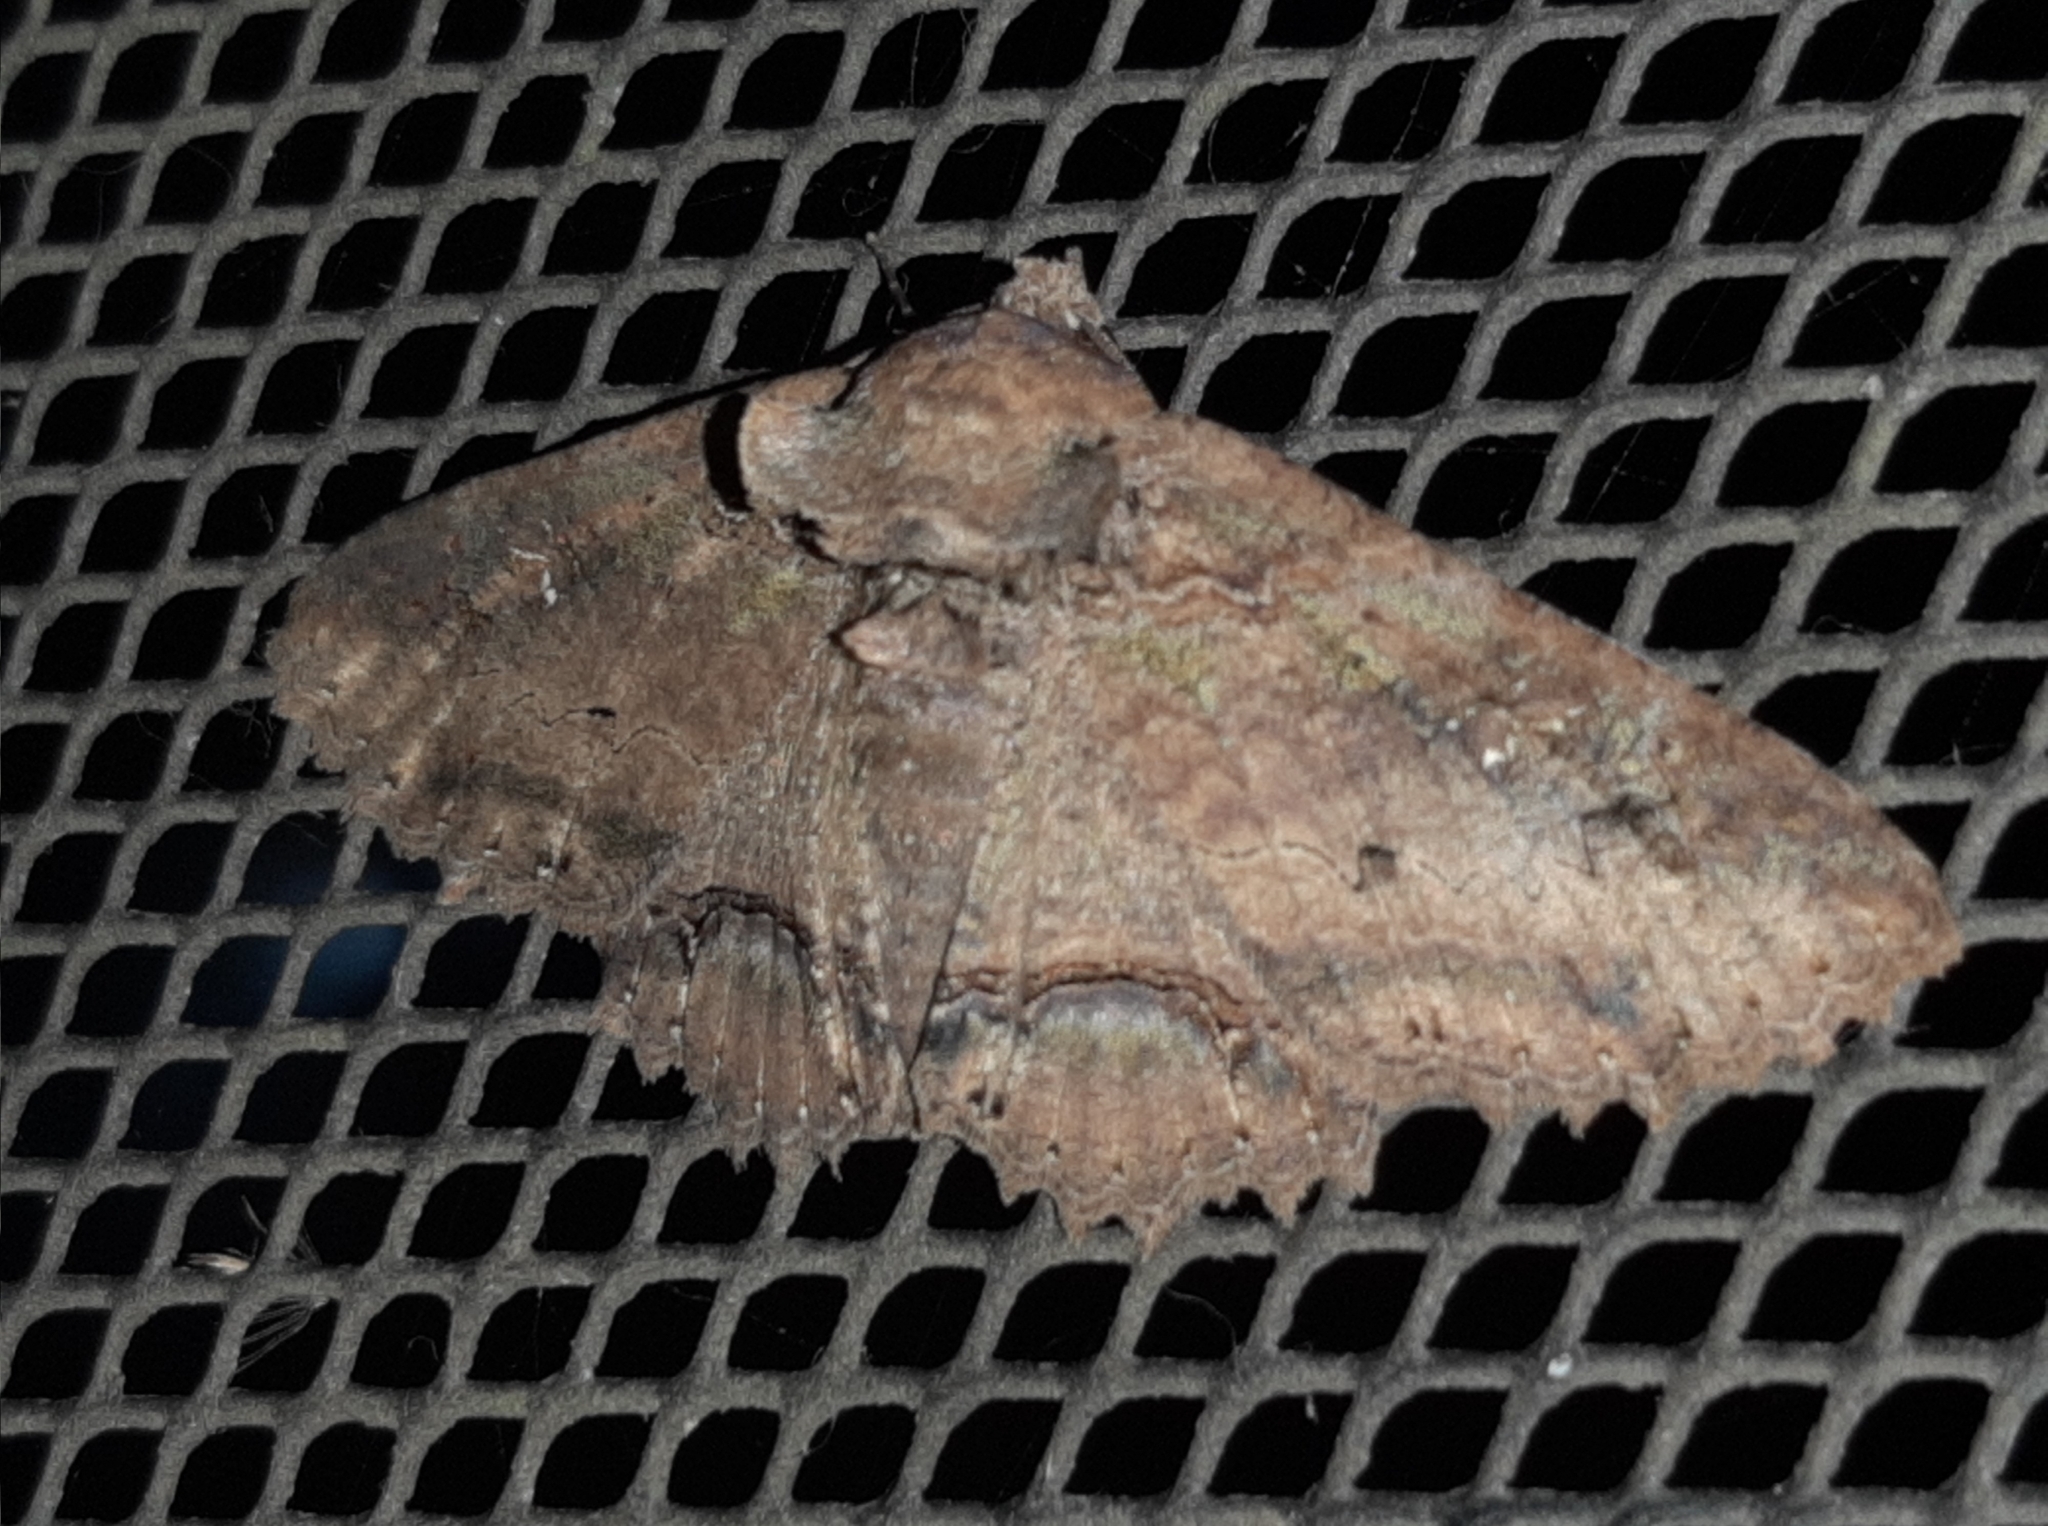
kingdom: Animalia
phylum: Arthropoda
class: Insecta
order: Lepidoptera
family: Erebidae
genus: Zale
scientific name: Zale fictilis
